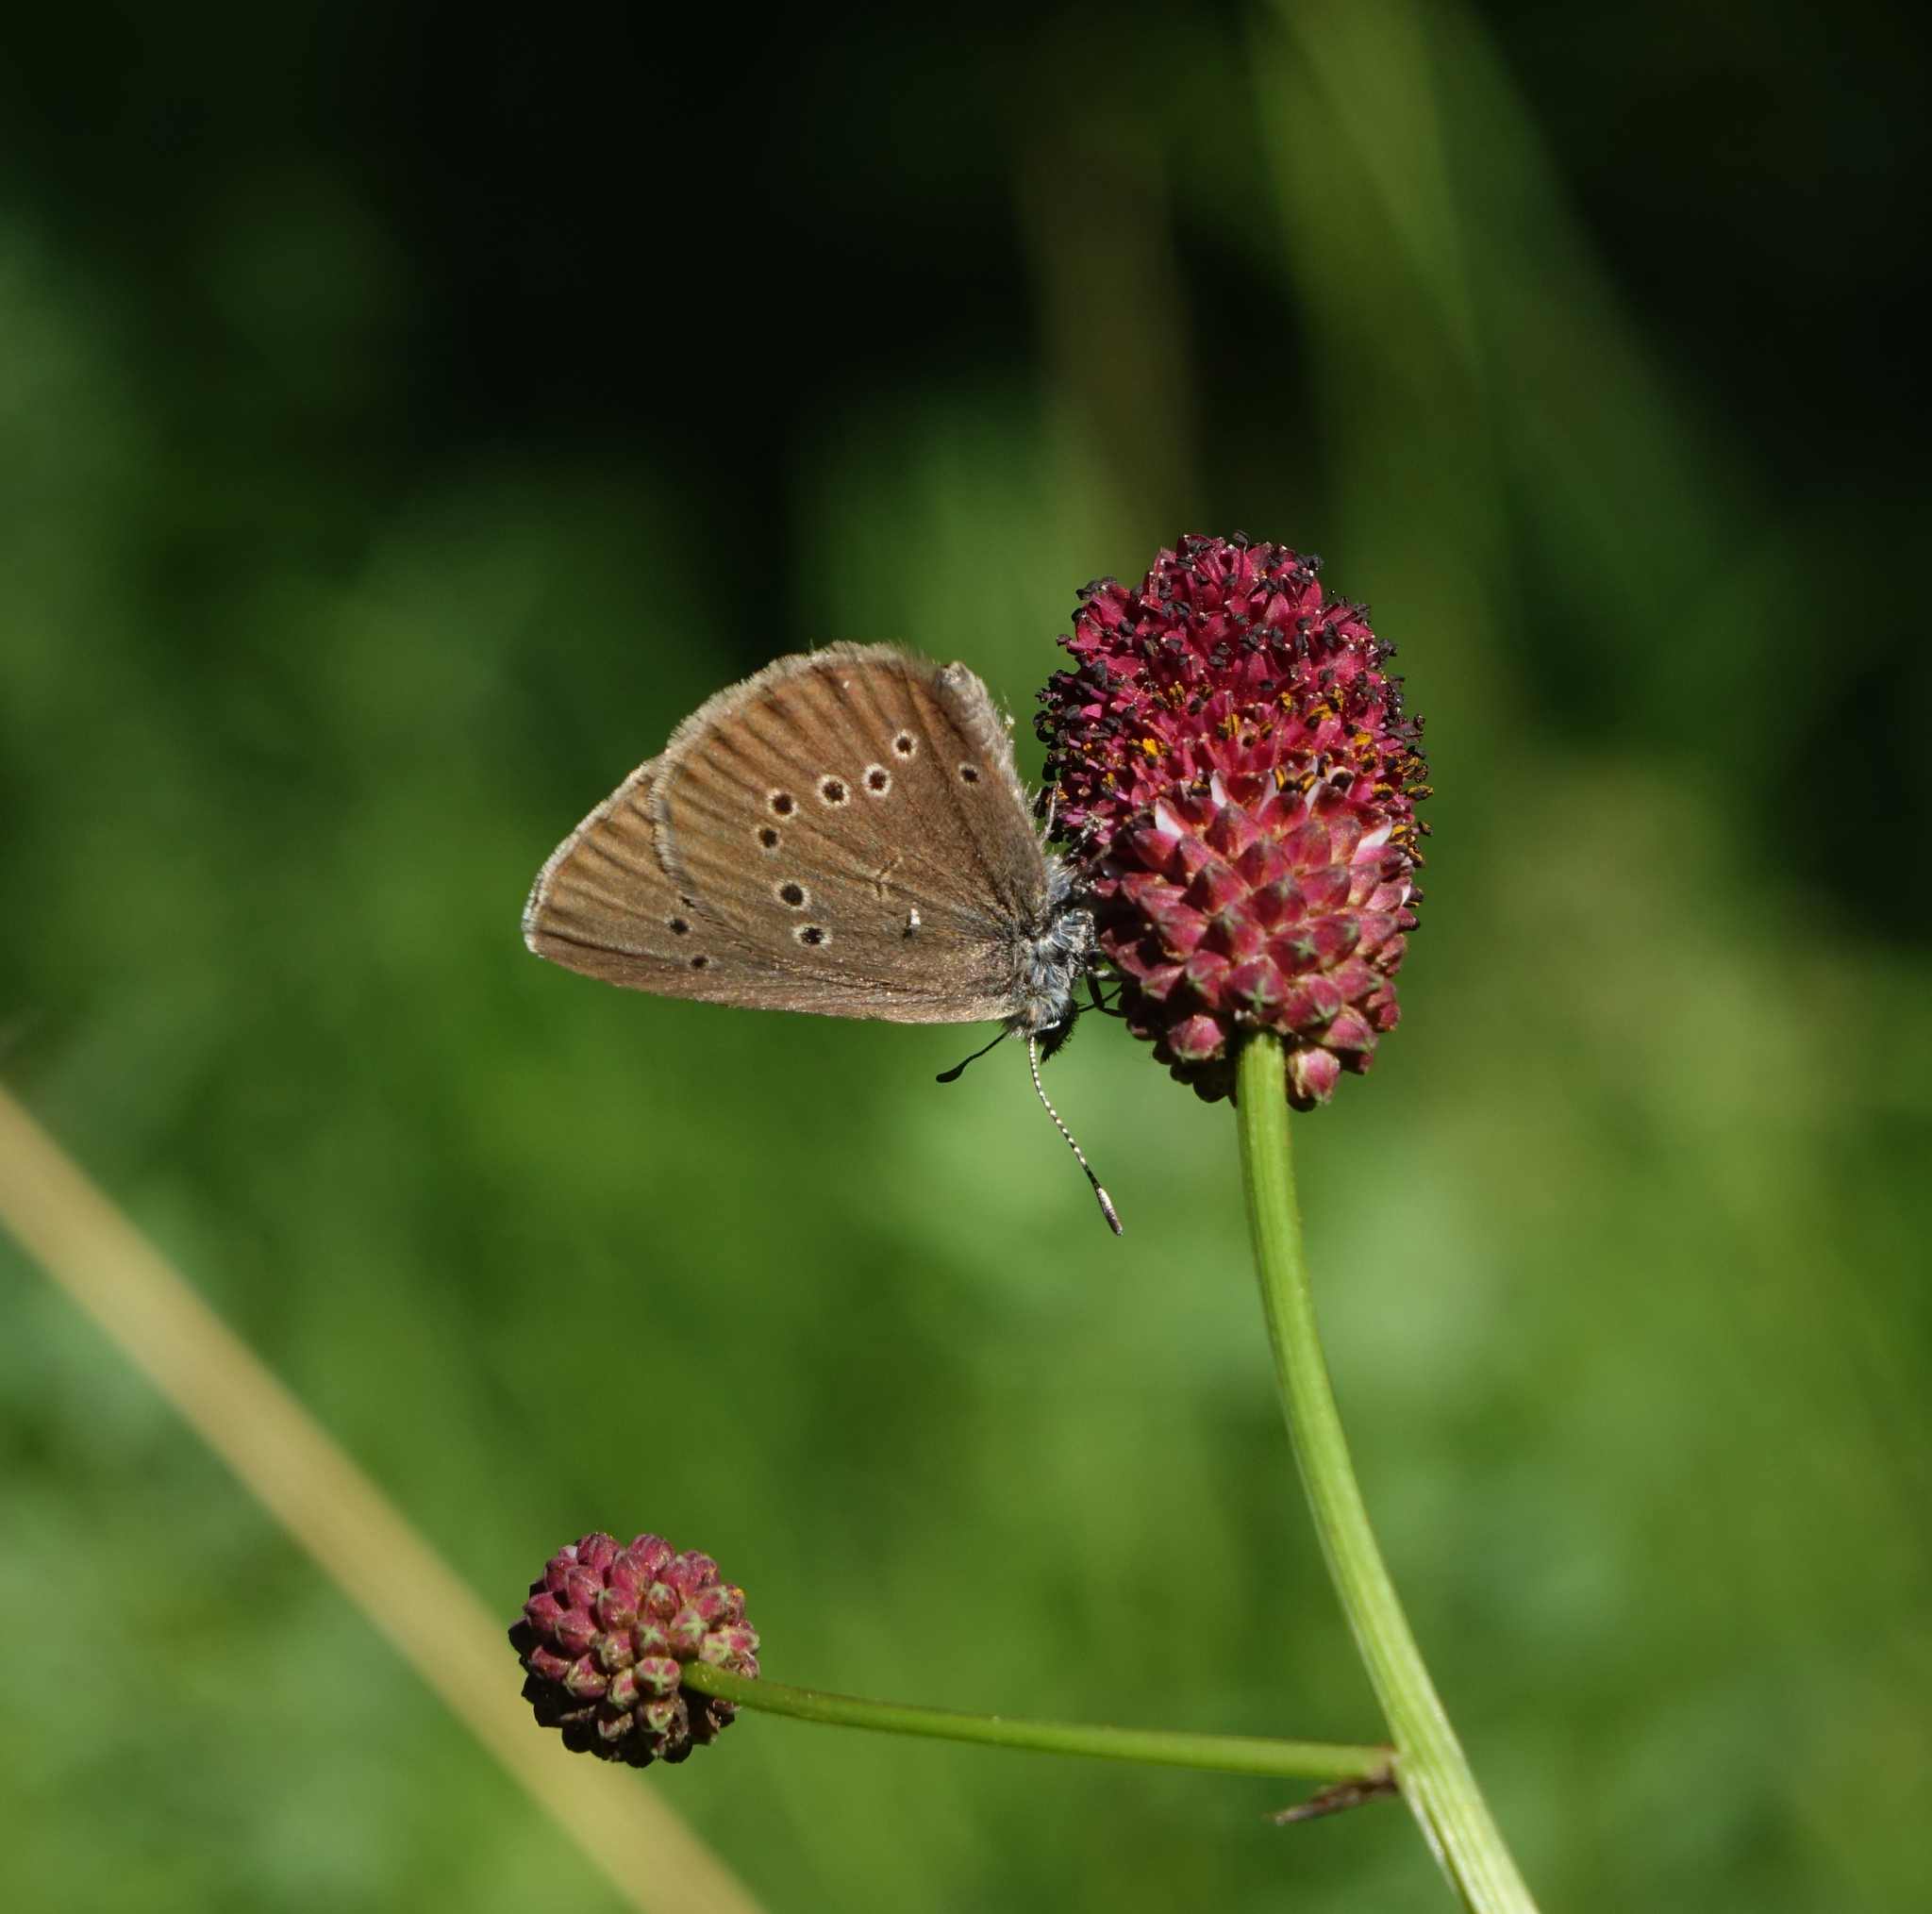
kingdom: Plantae
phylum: Tracheophyta
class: Magnoliopsida
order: Rosales
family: Rosaceae
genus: Sanguisorba
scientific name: Sanguisorba officinalis
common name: Great burnet
